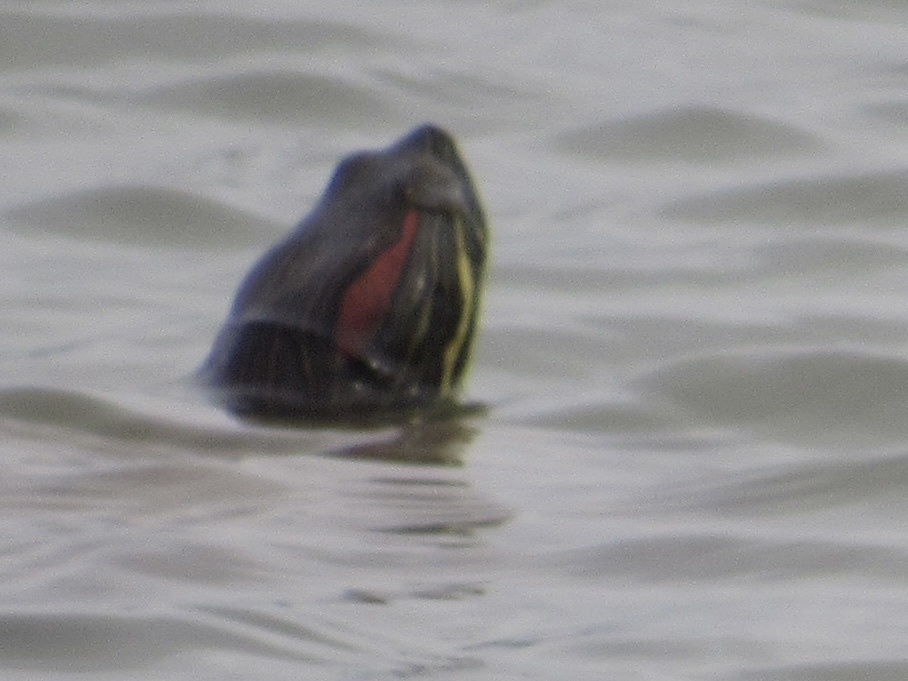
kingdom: Animalia
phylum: Chordata
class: Testudines
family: Emydidae
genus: Trachemys
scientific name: Trachemys scripta
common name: Slider
